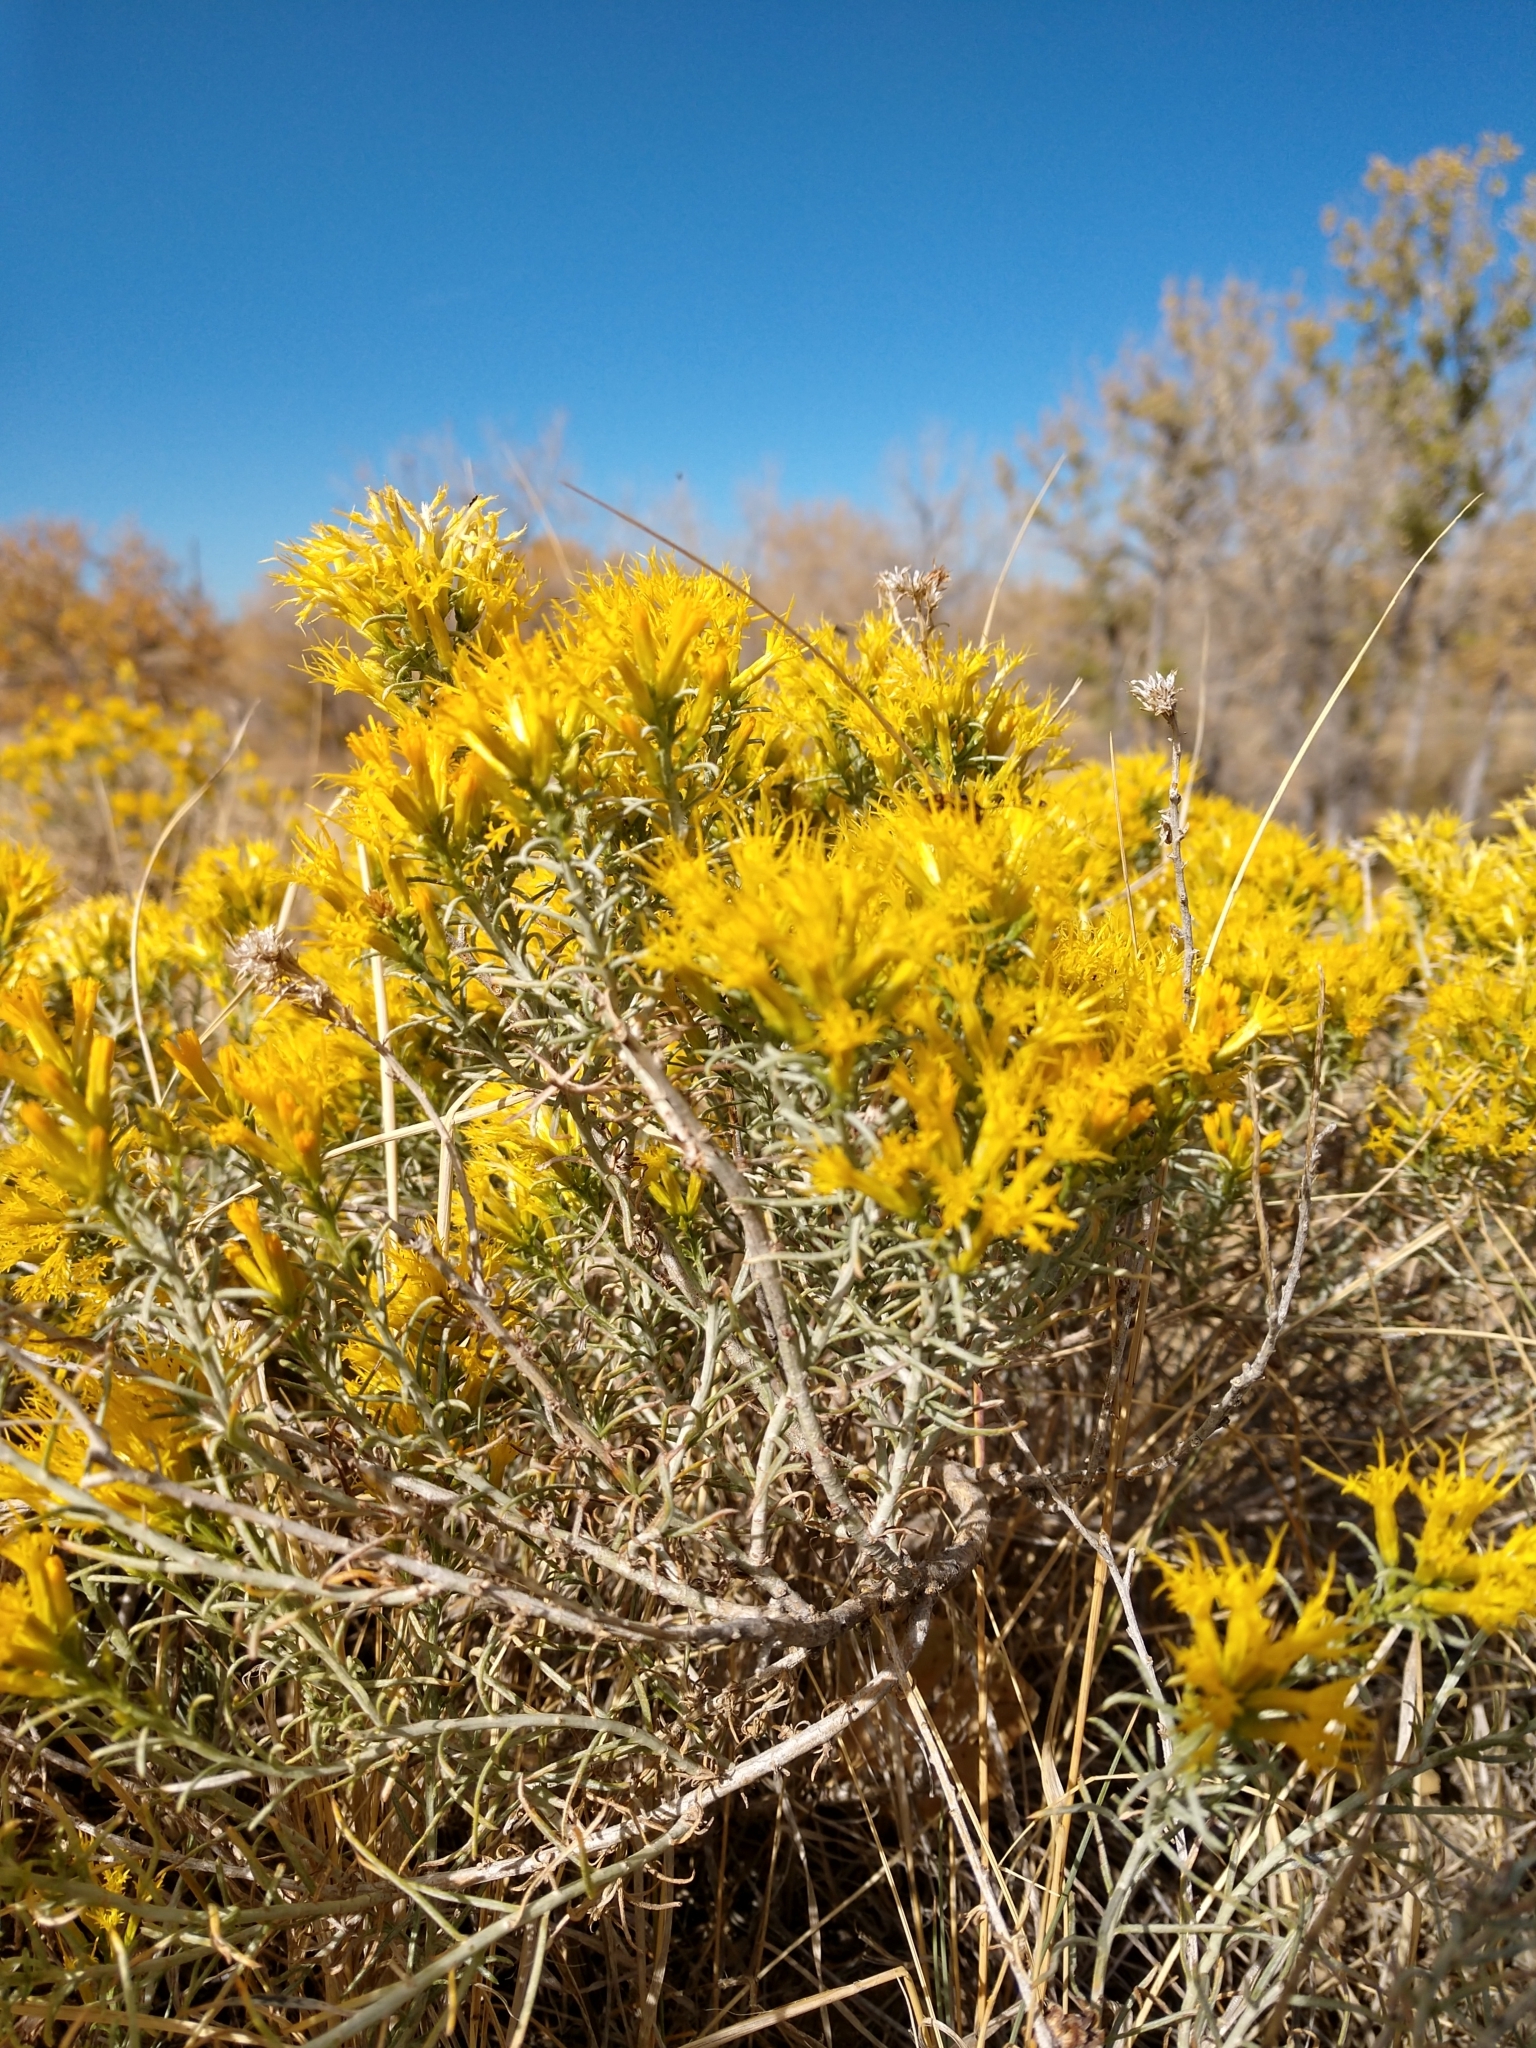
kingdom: Plantae
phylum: Tracheophyta
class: Magnoliopsida
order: Asterales
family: Asteraceae
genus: Ericameria
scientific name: Ericameria nauseosa
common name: Rubber rabbitbrush
